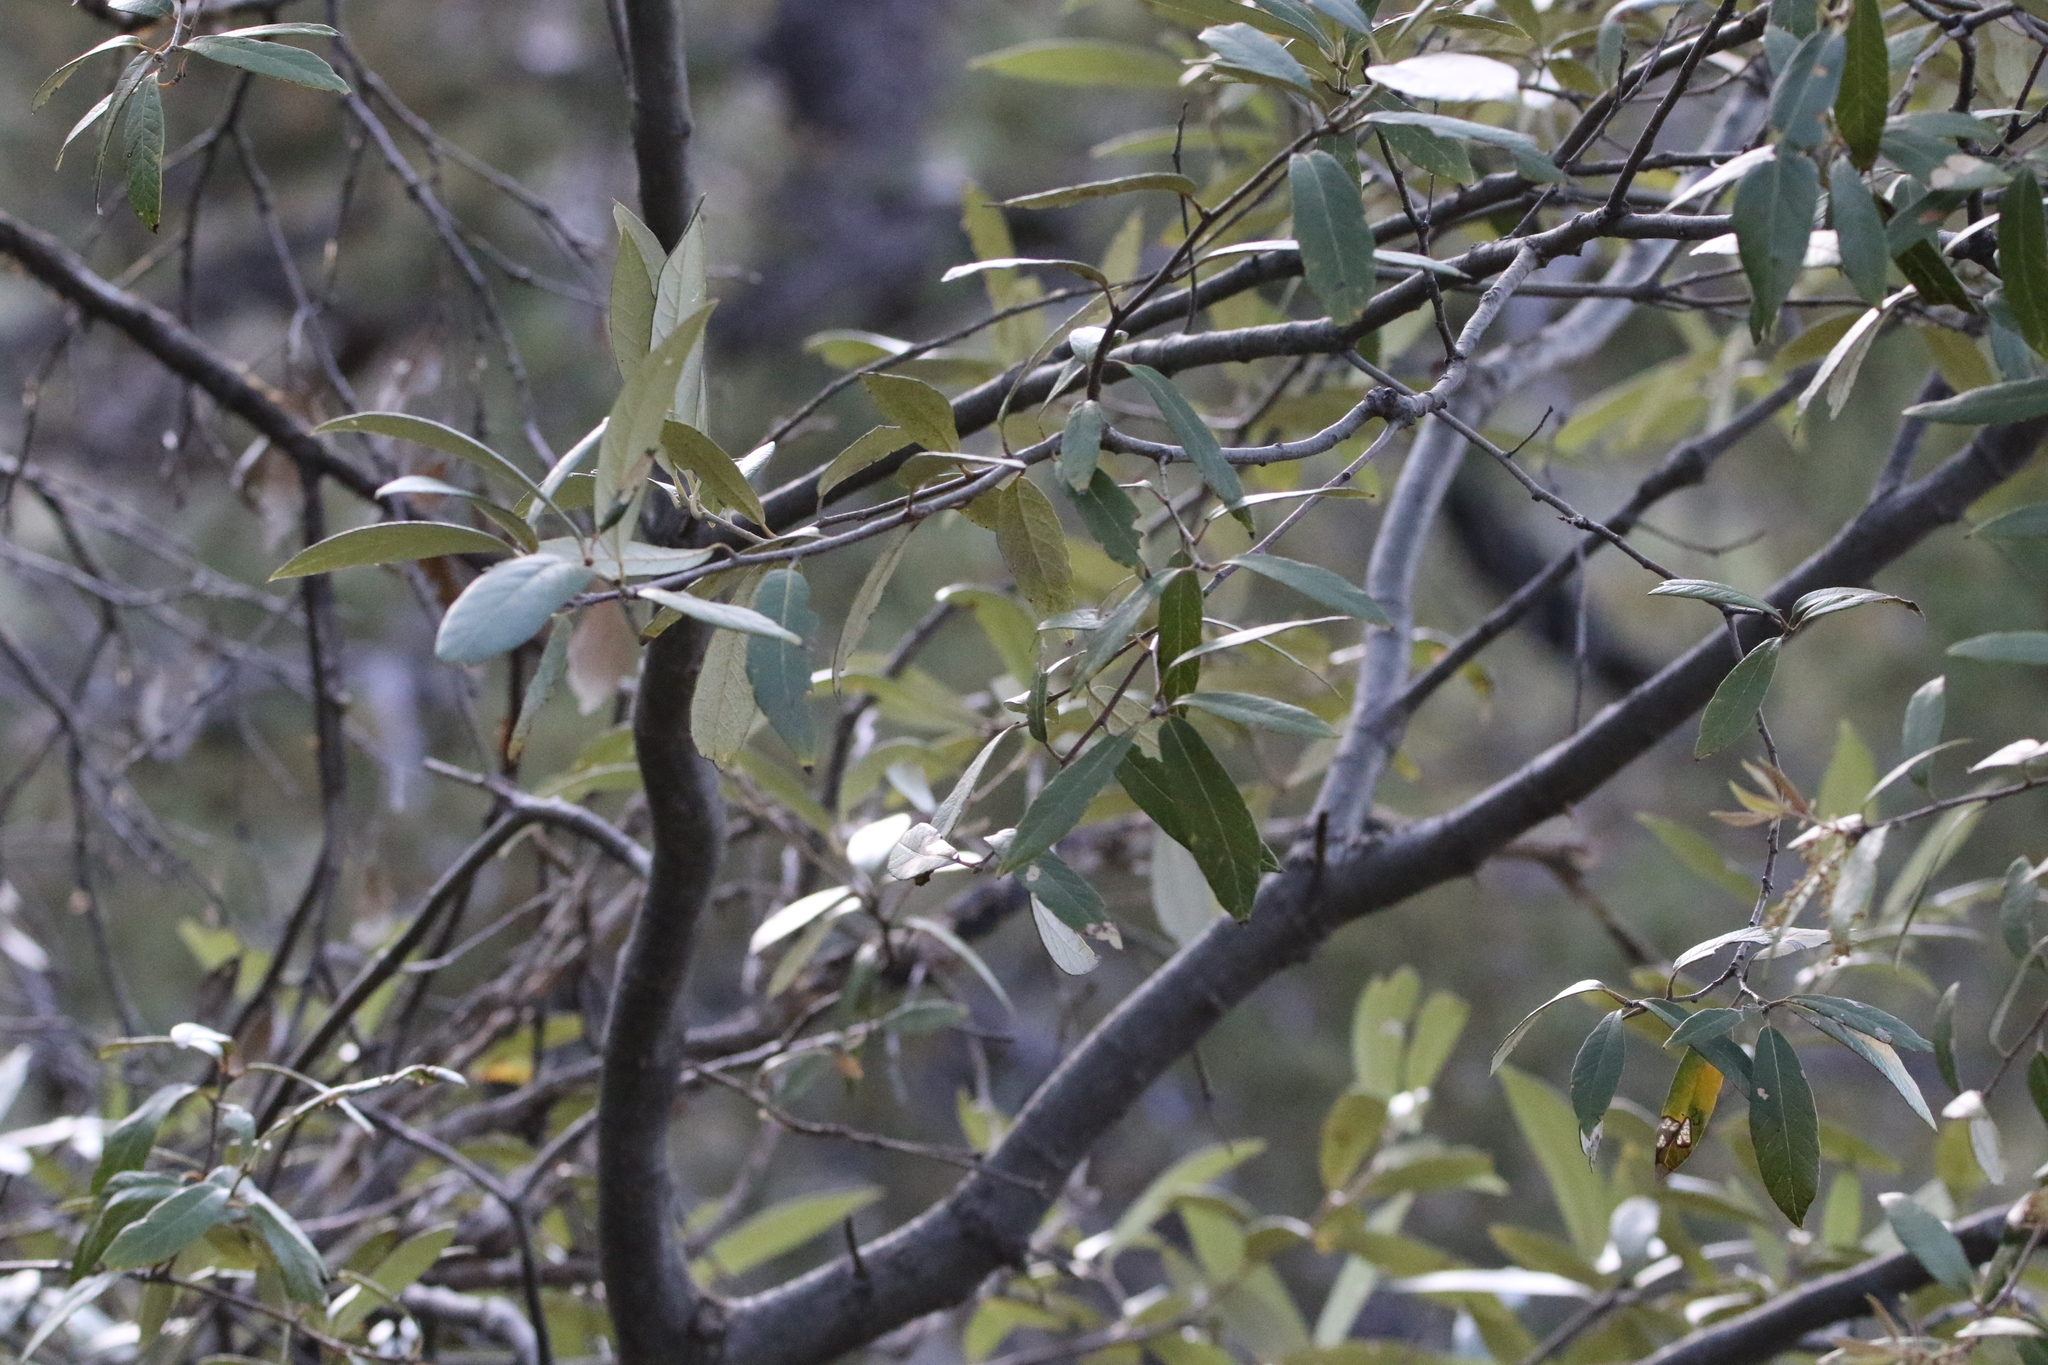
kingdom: Plantae
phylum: Tracheophyta
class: Magnoliopsida
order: Fagales
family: Fagaceae
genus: Quercus
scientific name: Quercus hypoleucoides
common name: Silverleaf oak
